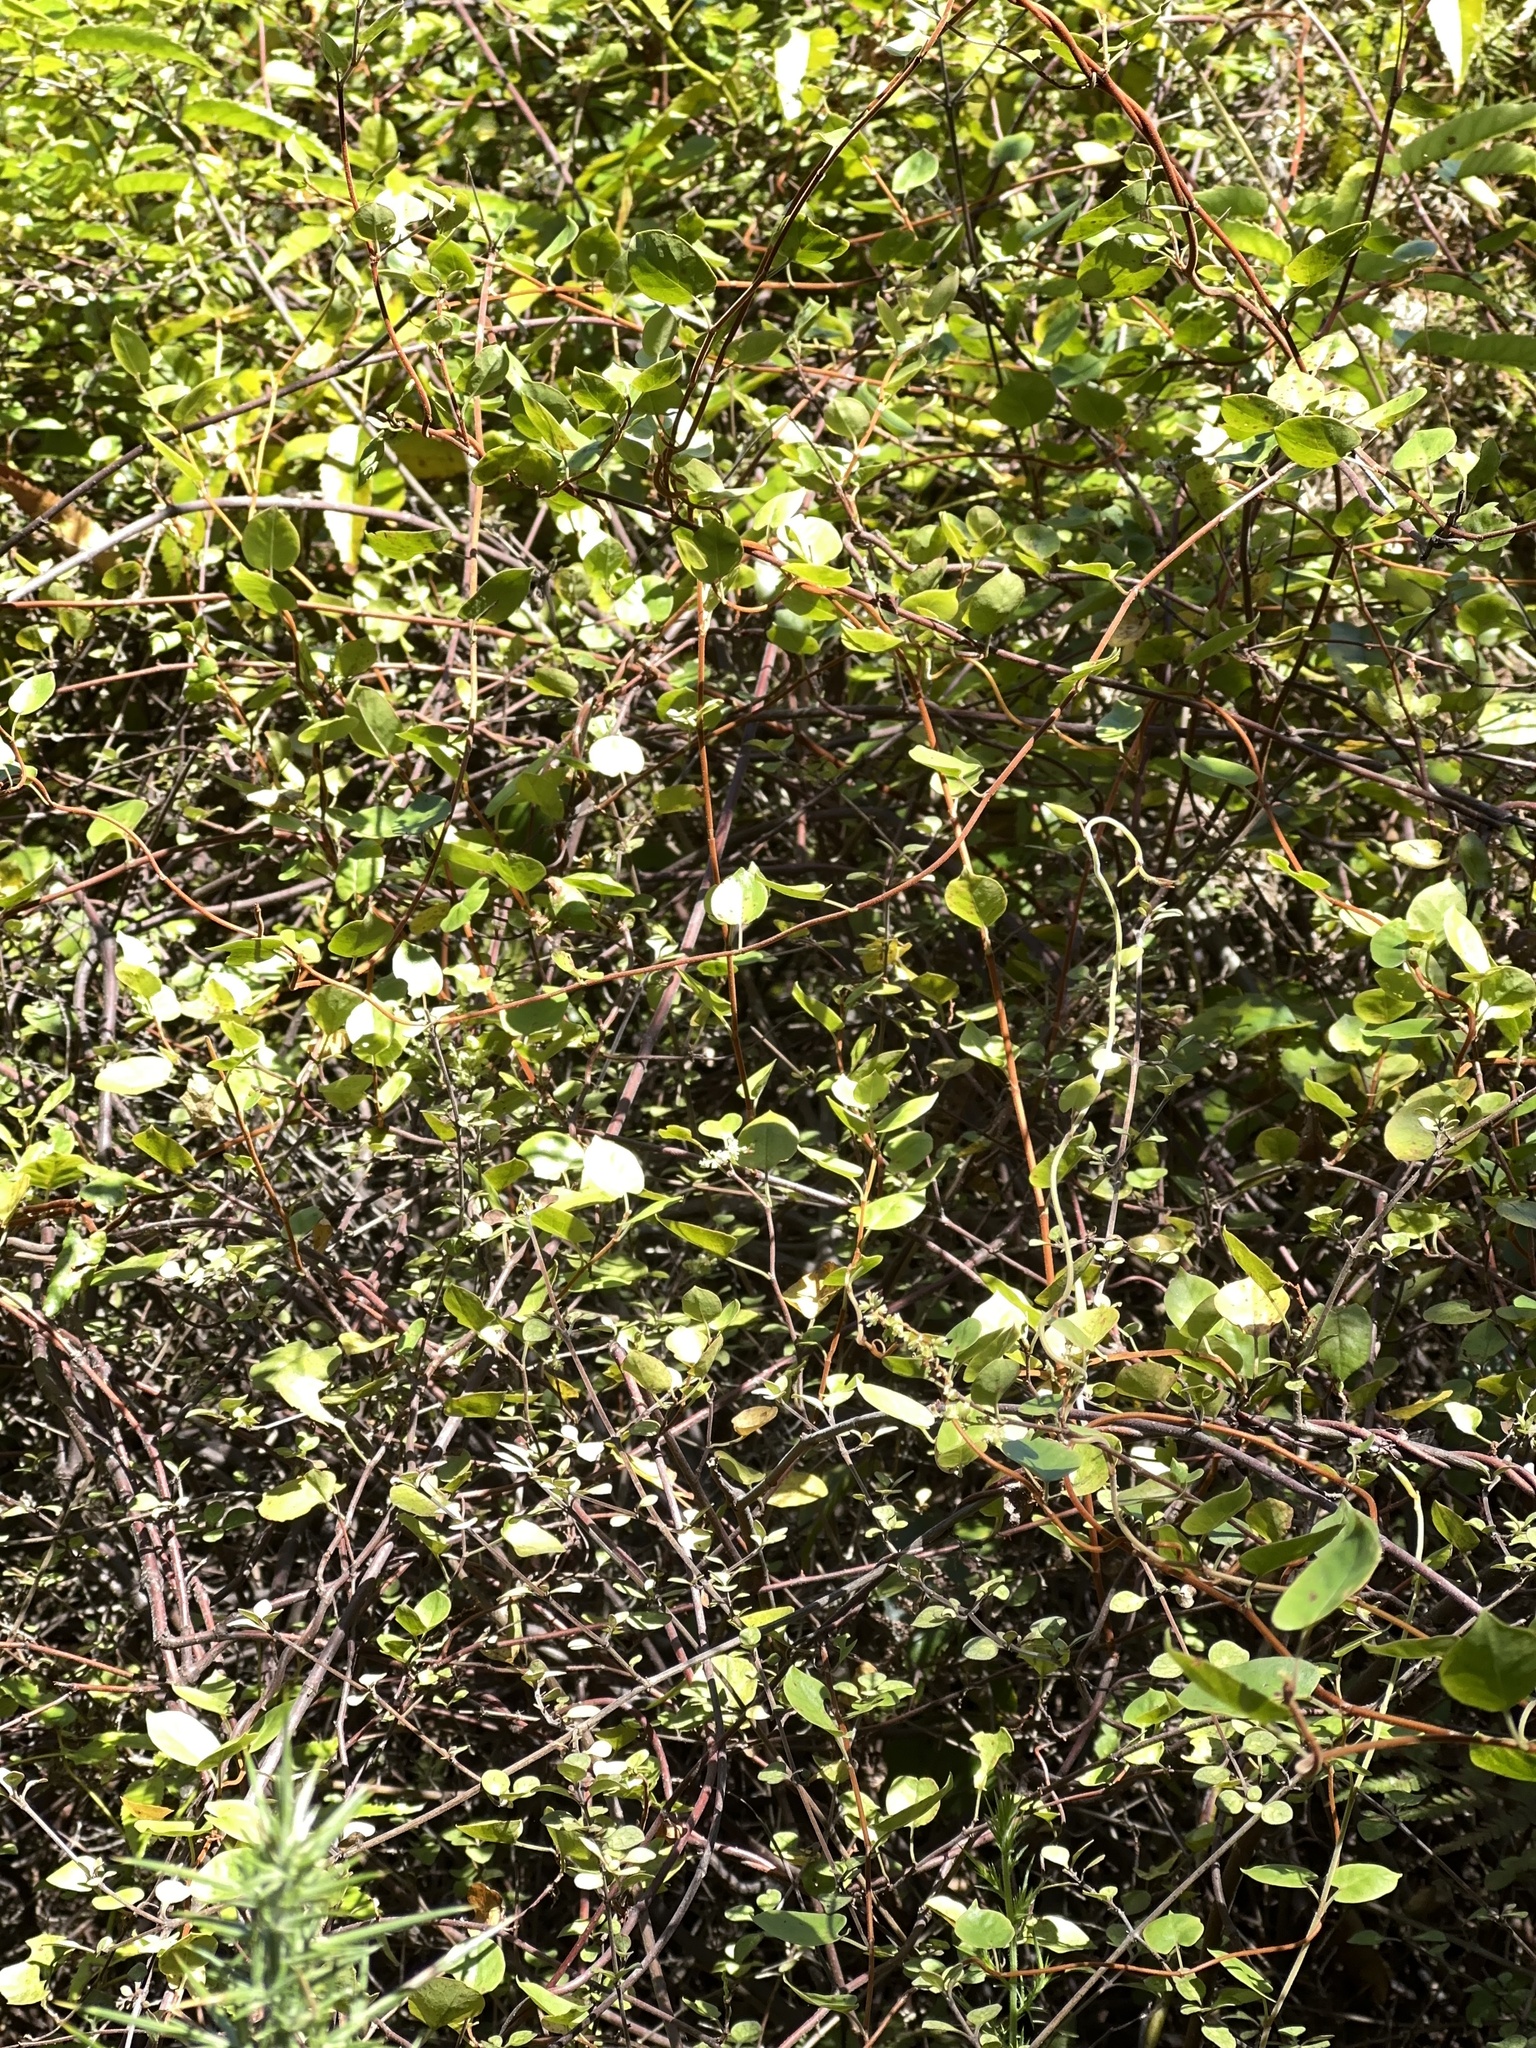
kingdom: Plantae
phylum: Tracheophyta
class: Magnoliopsida
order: Caryophyllales
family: Polygonaceae
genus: Muehlenbeckia
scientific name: Muehlenbeckia australis
